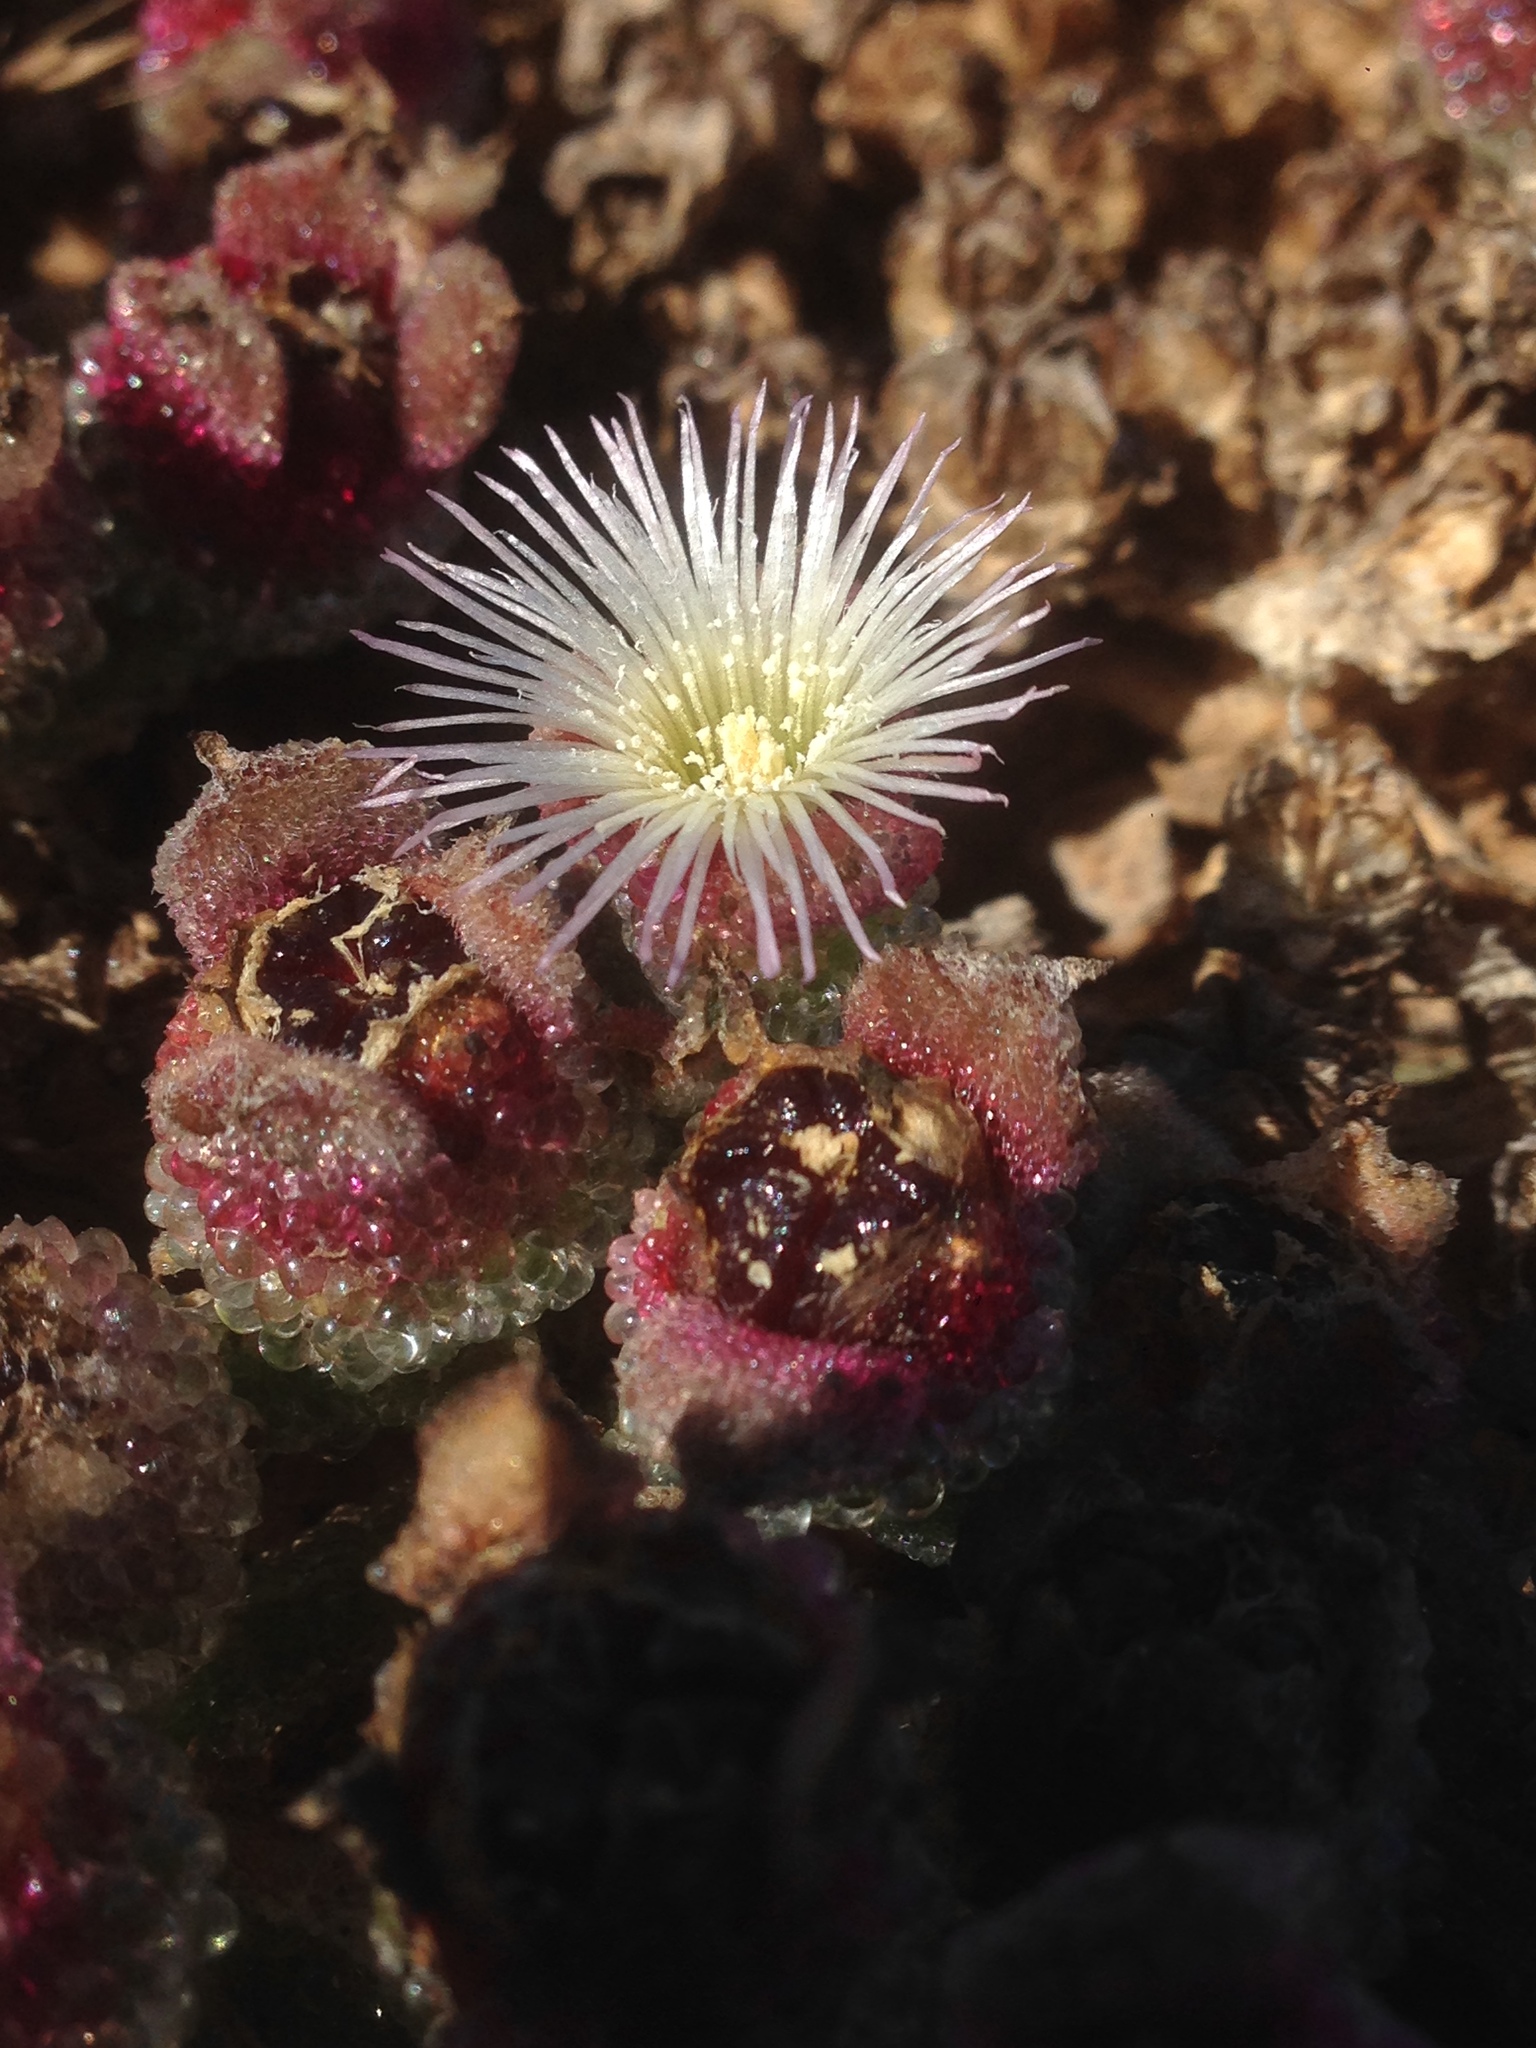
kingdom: Plantae
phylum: Tracheophyta
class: Magnoliopsida
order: Caryophyllales
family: Aizoaceae
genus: Mesembryanthemum
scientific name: Mesembryanthemum crystallinum
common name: Common iceplant
